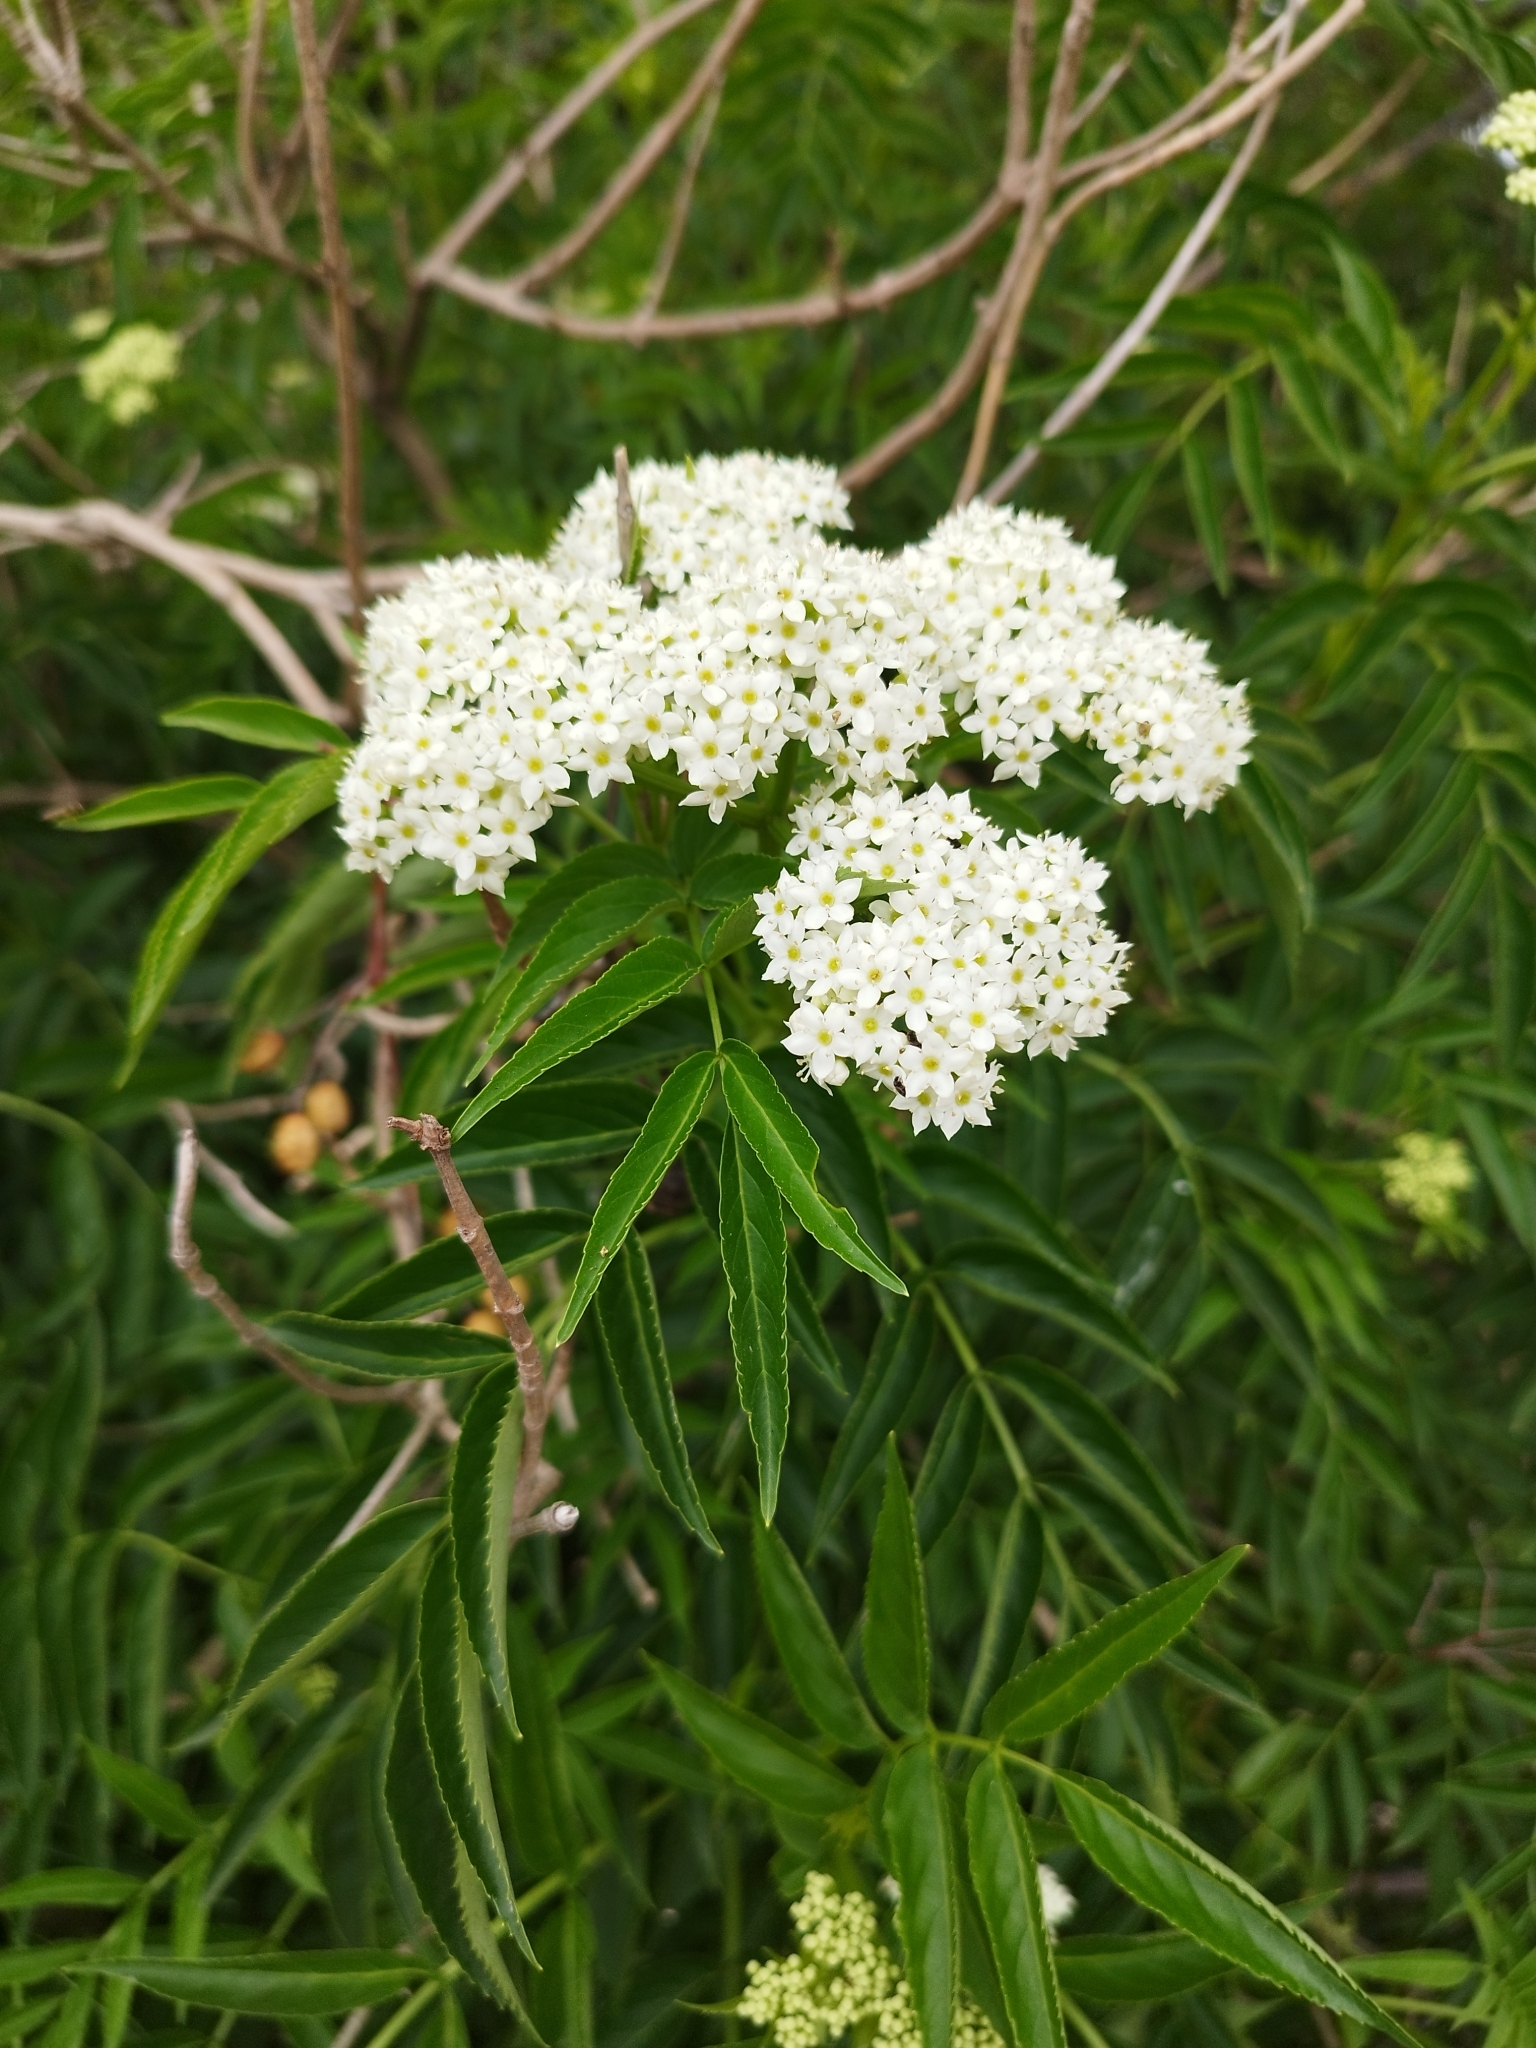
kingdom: Plantae
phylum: Tracheophyta
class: Magnoliopsida
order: Dipsacales
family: Viburnaceae
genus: Sambucus
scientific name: Sambucus australis
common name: Southern elder
